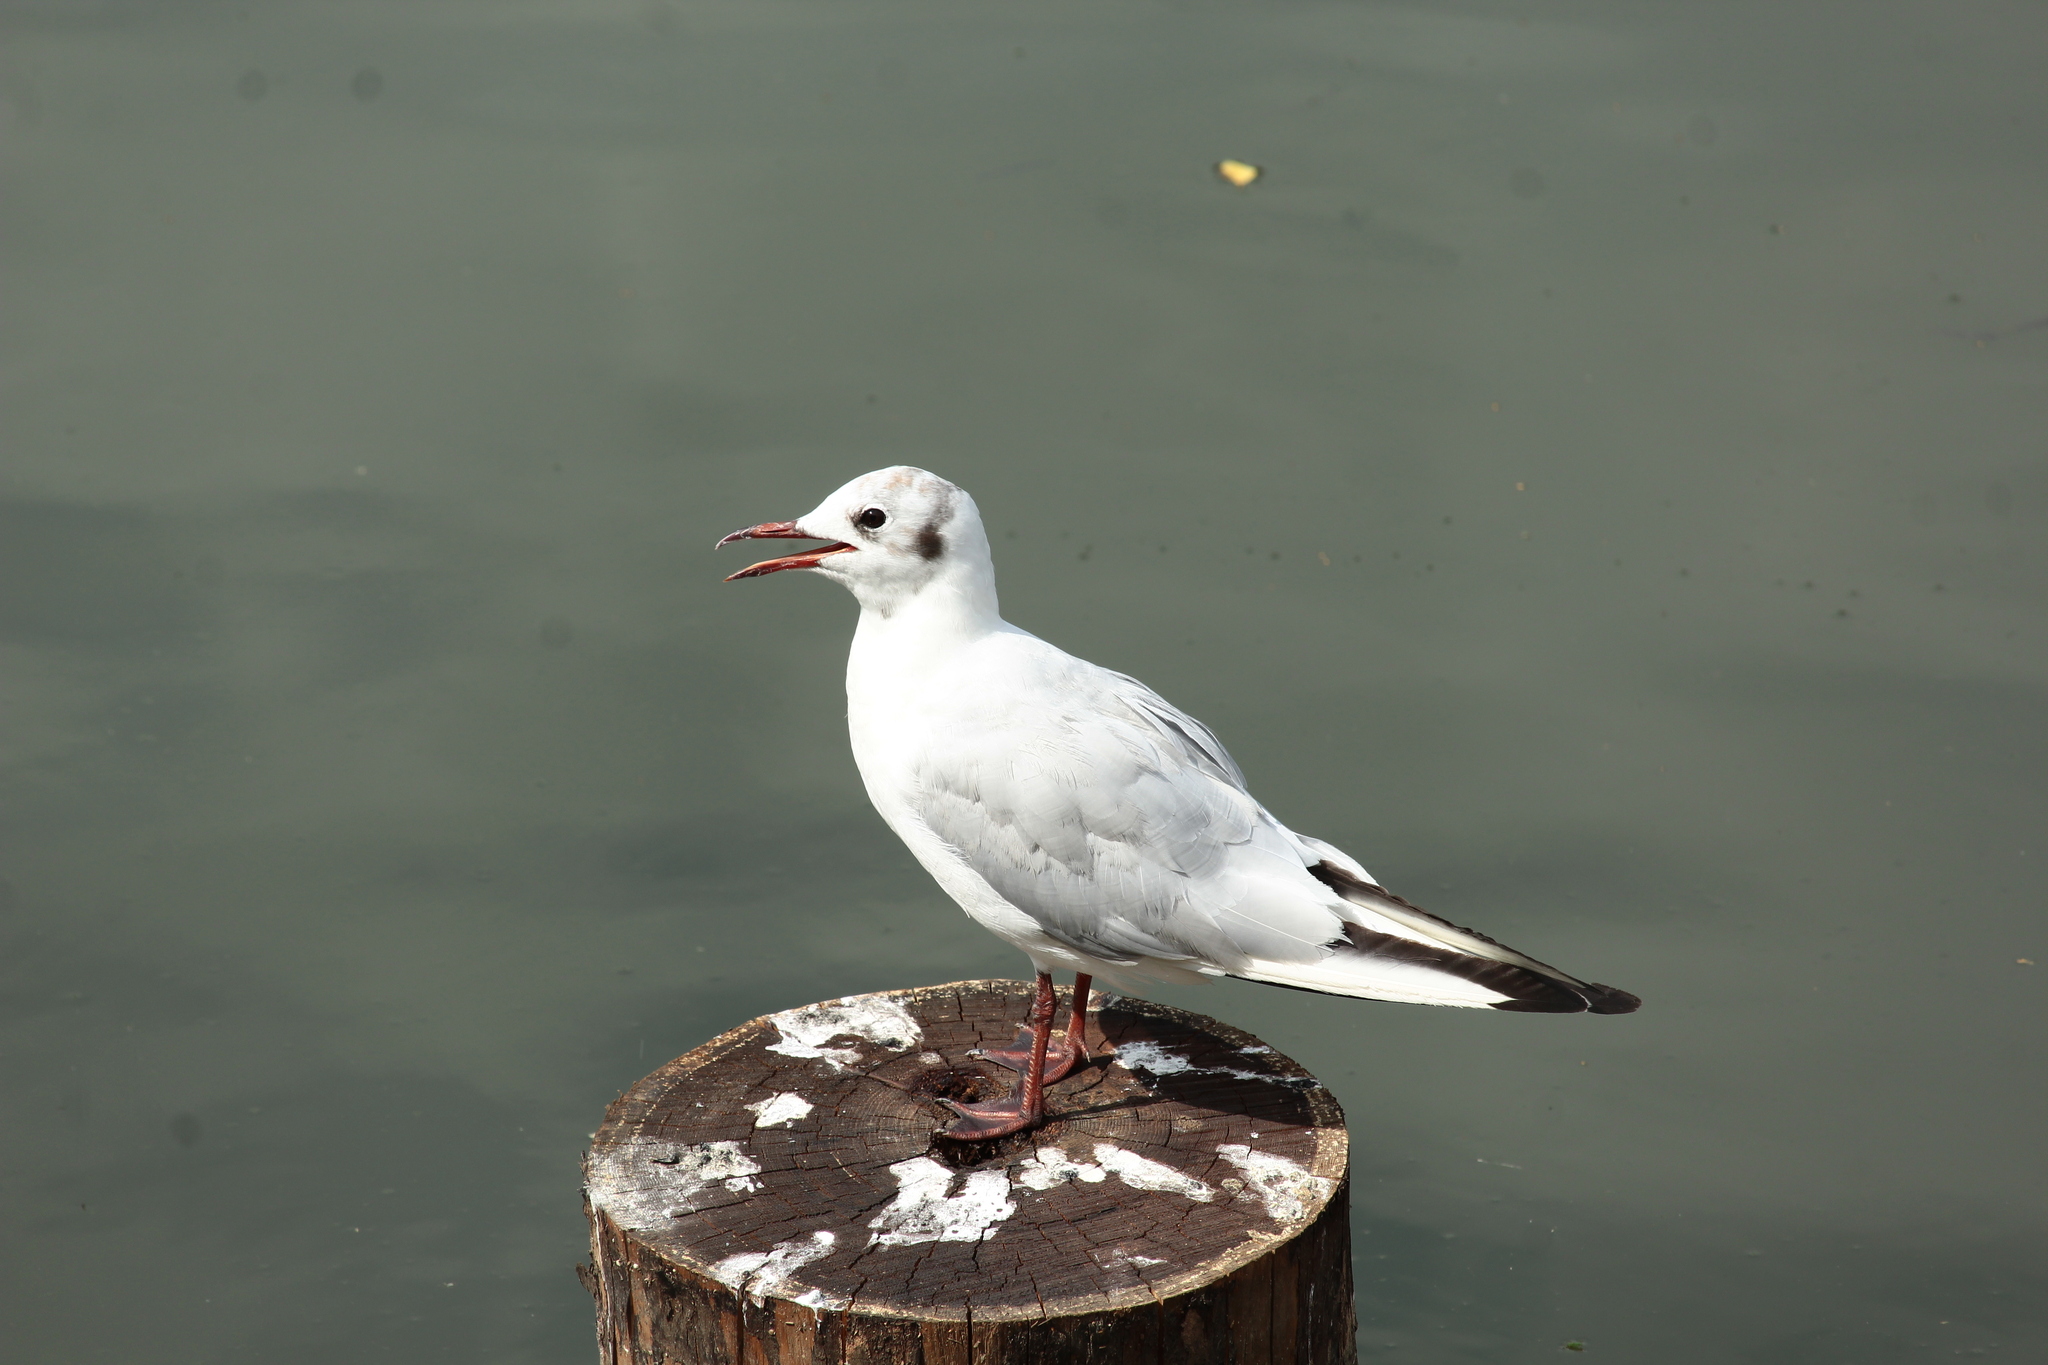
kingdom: Animalia
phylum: Chordata
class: Aves
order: Charadriiformes
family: Laridae
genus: Chroicocephalus
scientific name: Chroicocephalus ridibundus
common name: Black-headed gull
